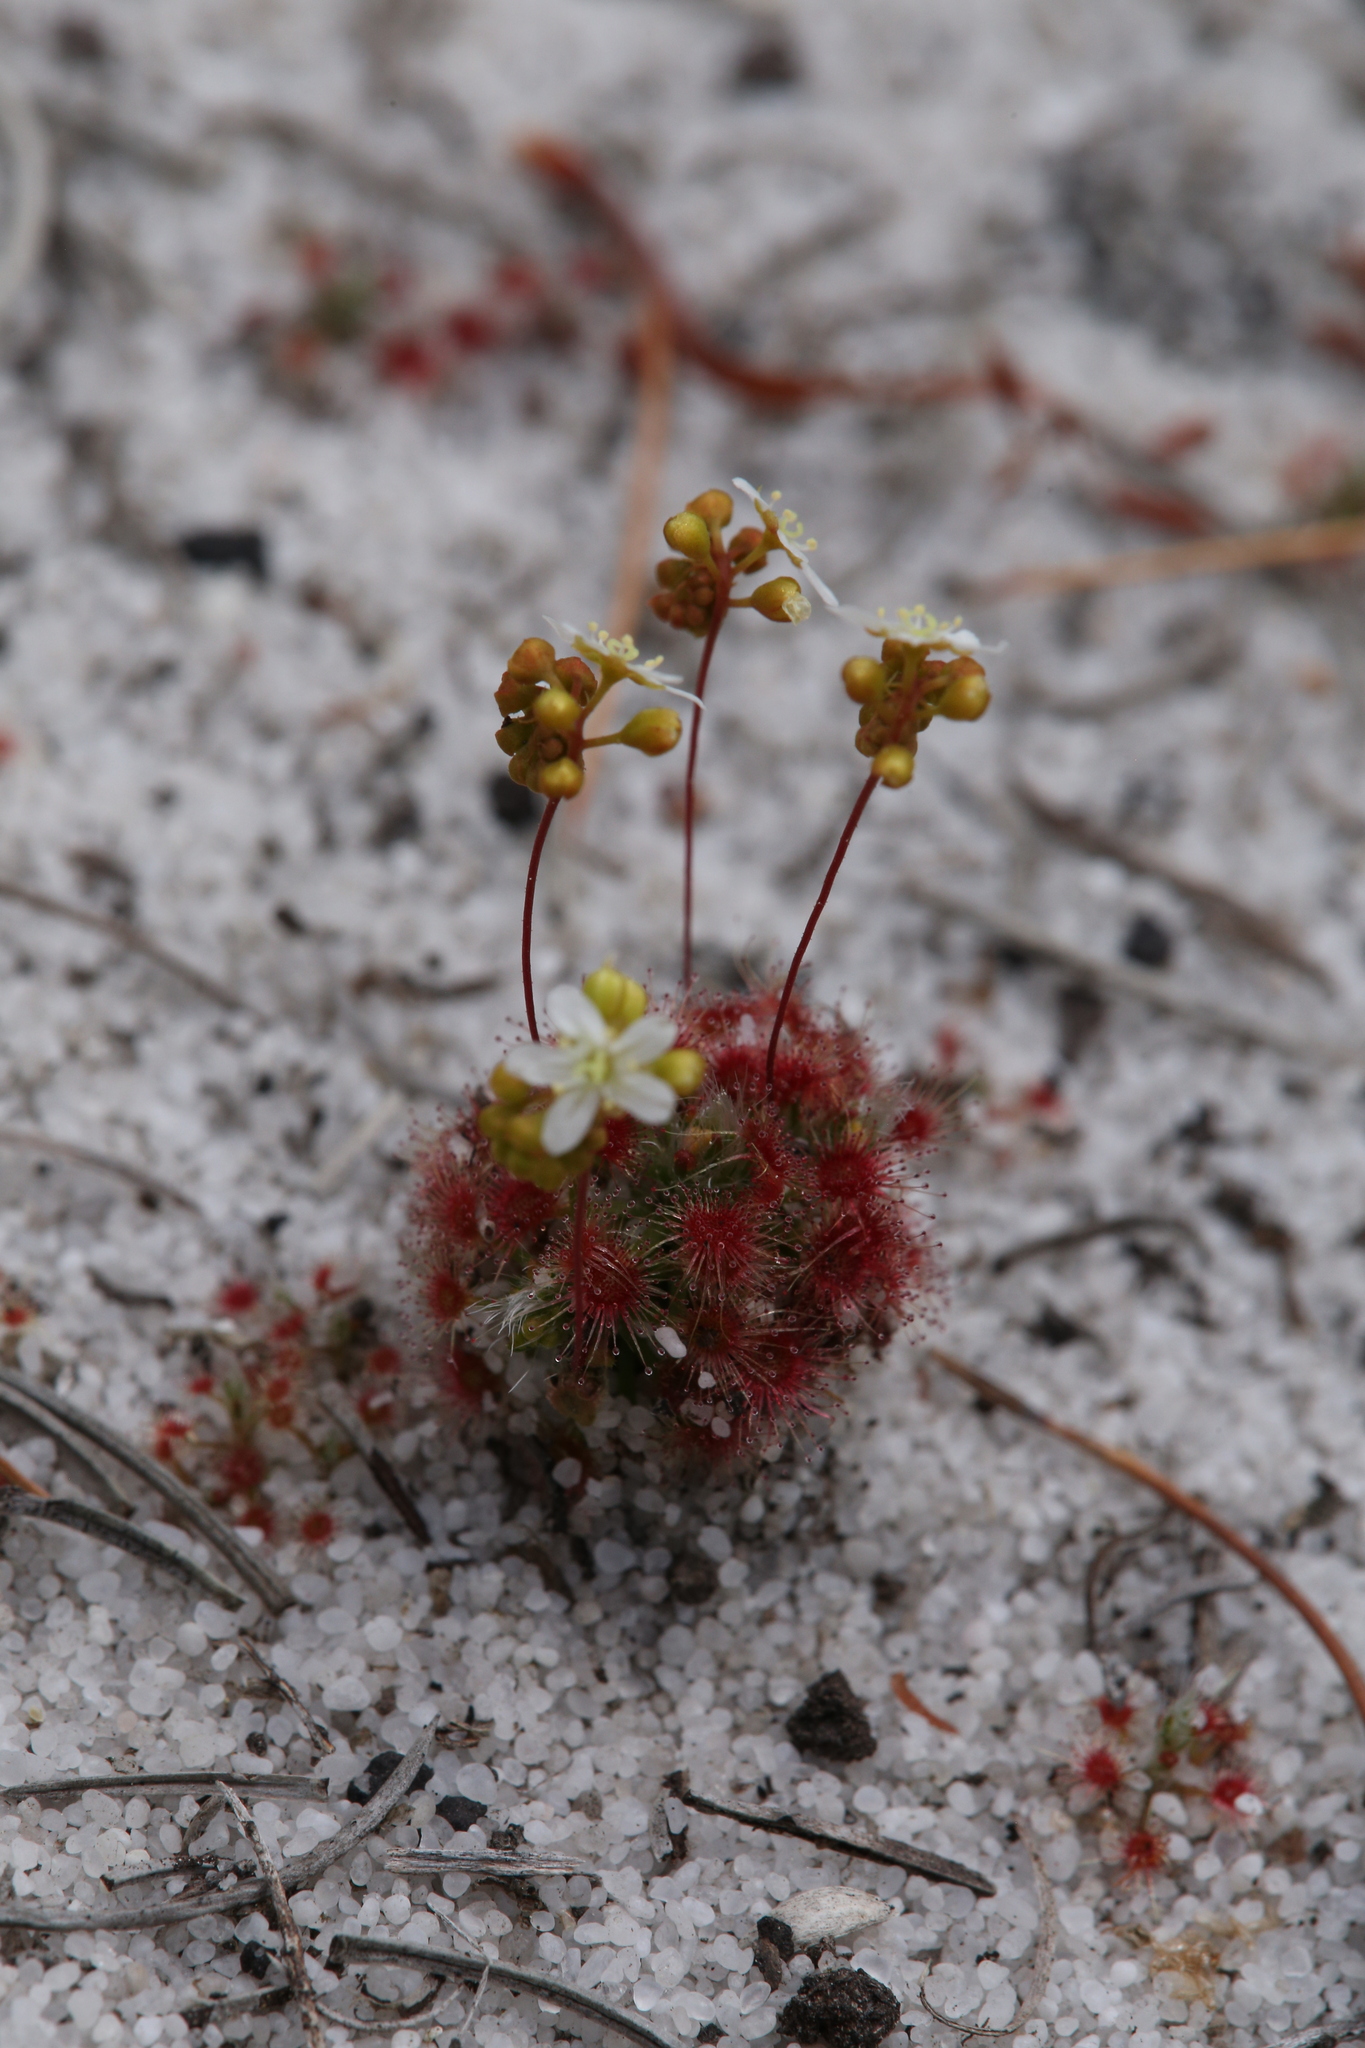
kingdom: Plantae
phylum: Tracheophyta
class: Magnoliopsida
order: Caryophyllales
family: Droseraceae
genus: Drosera
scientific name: Drosera paleacea
